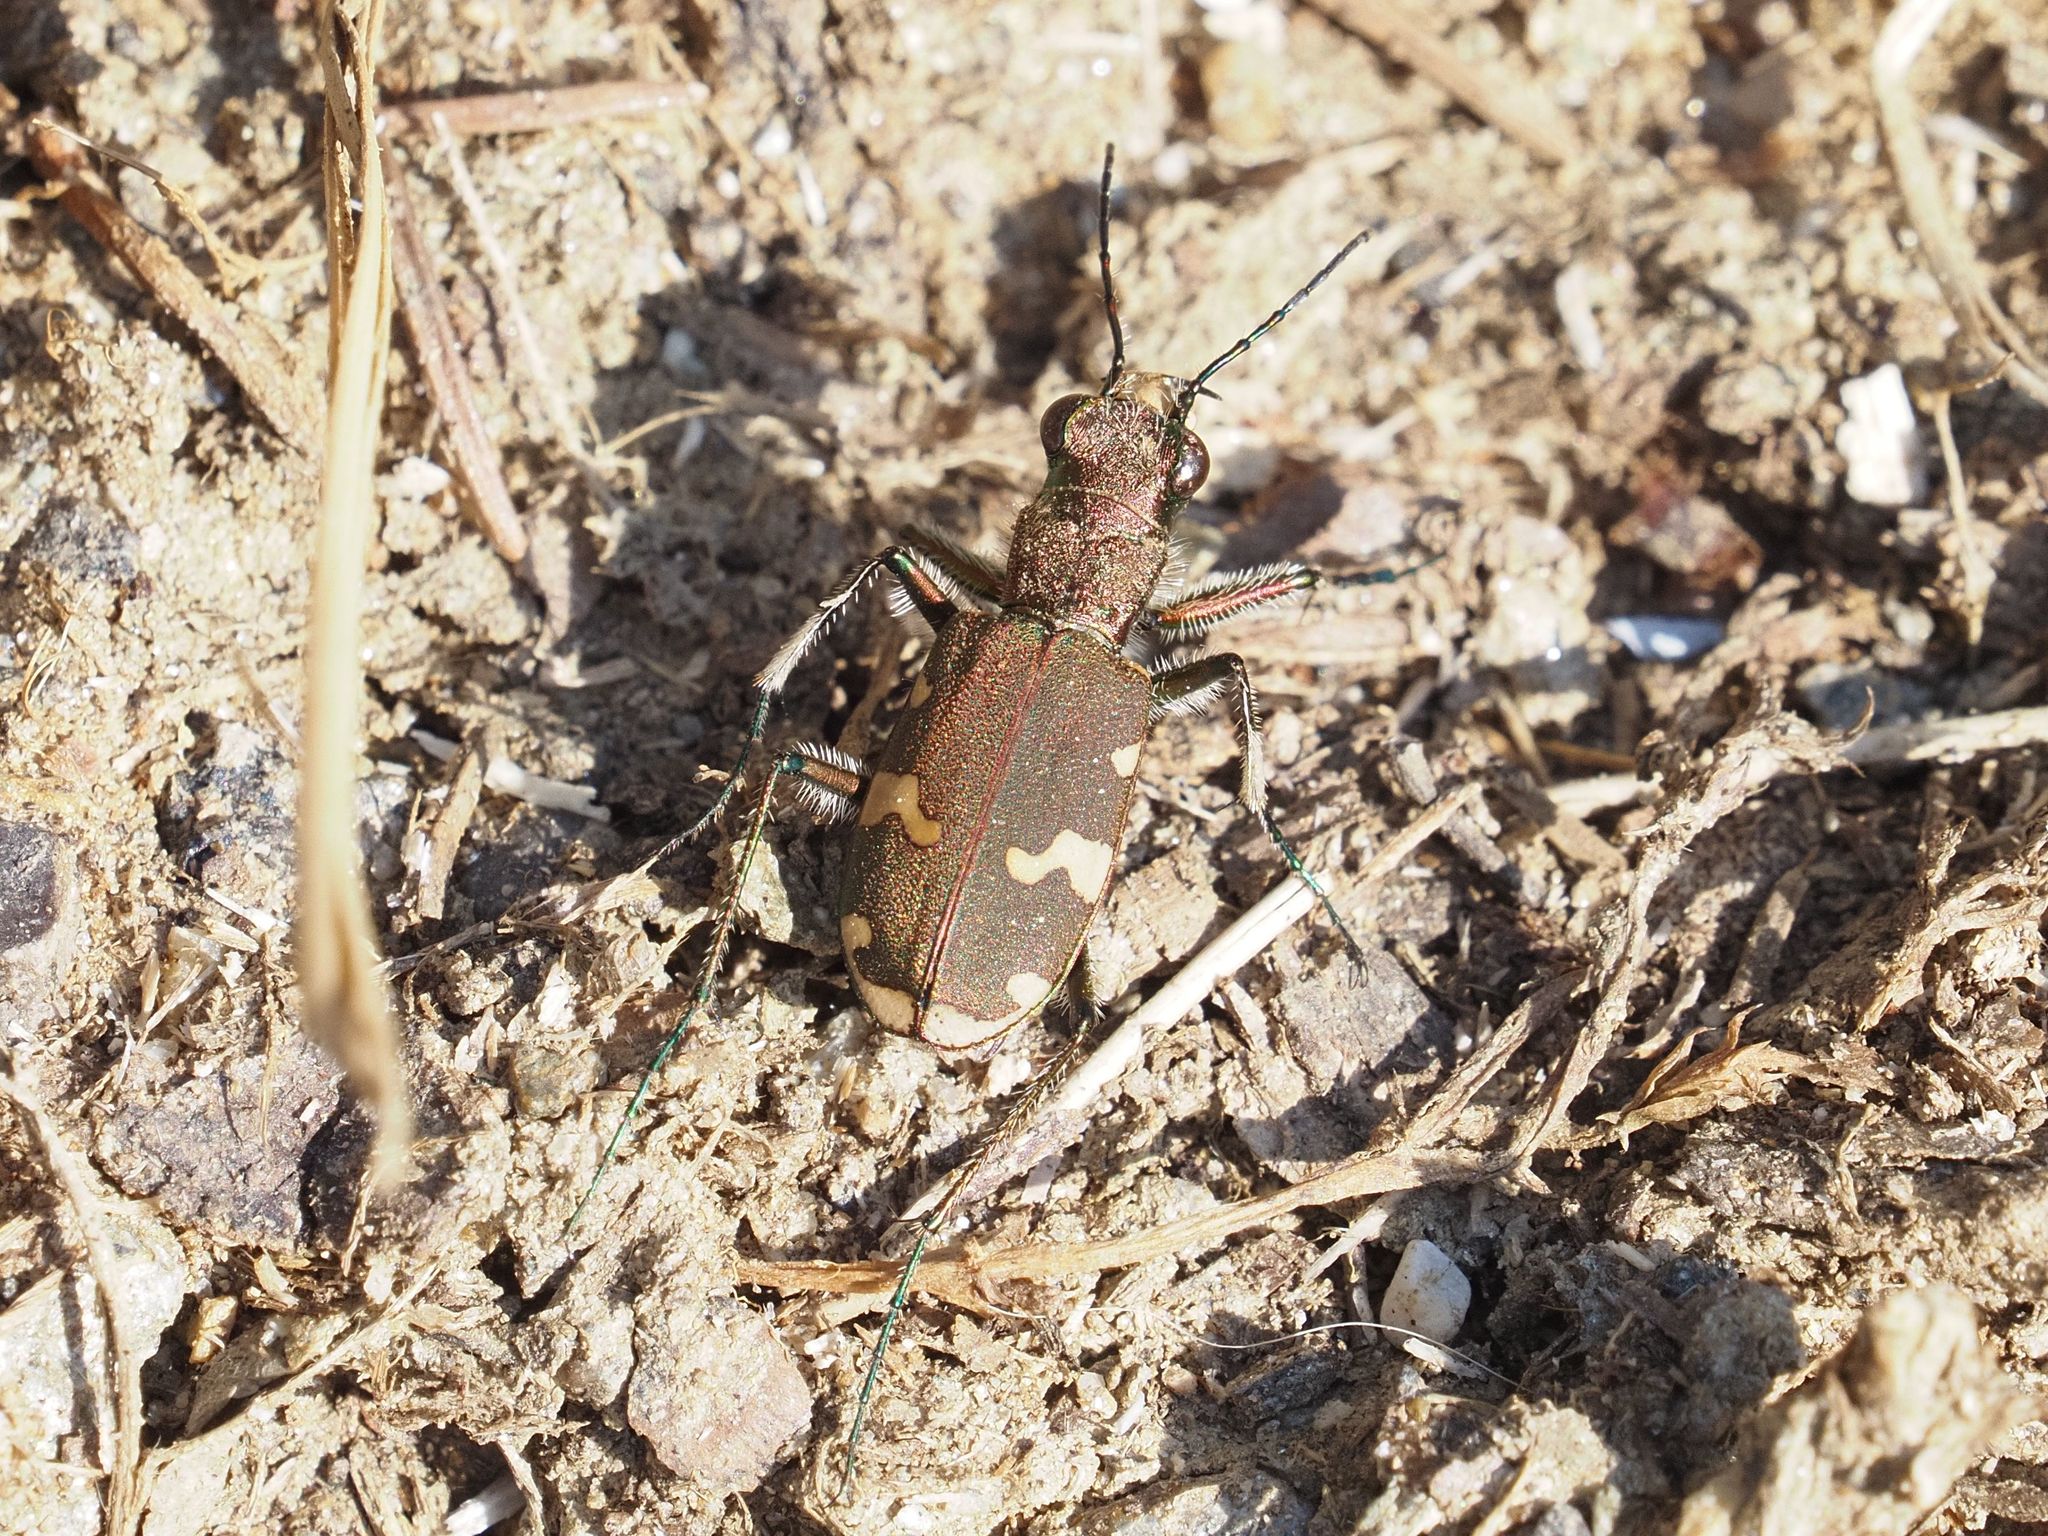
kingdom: Animalia
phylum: Arthropoda
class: Insecta
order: Coleoptera
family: Carabidae
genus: Cicindela
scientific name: Cicindela sylvicola
